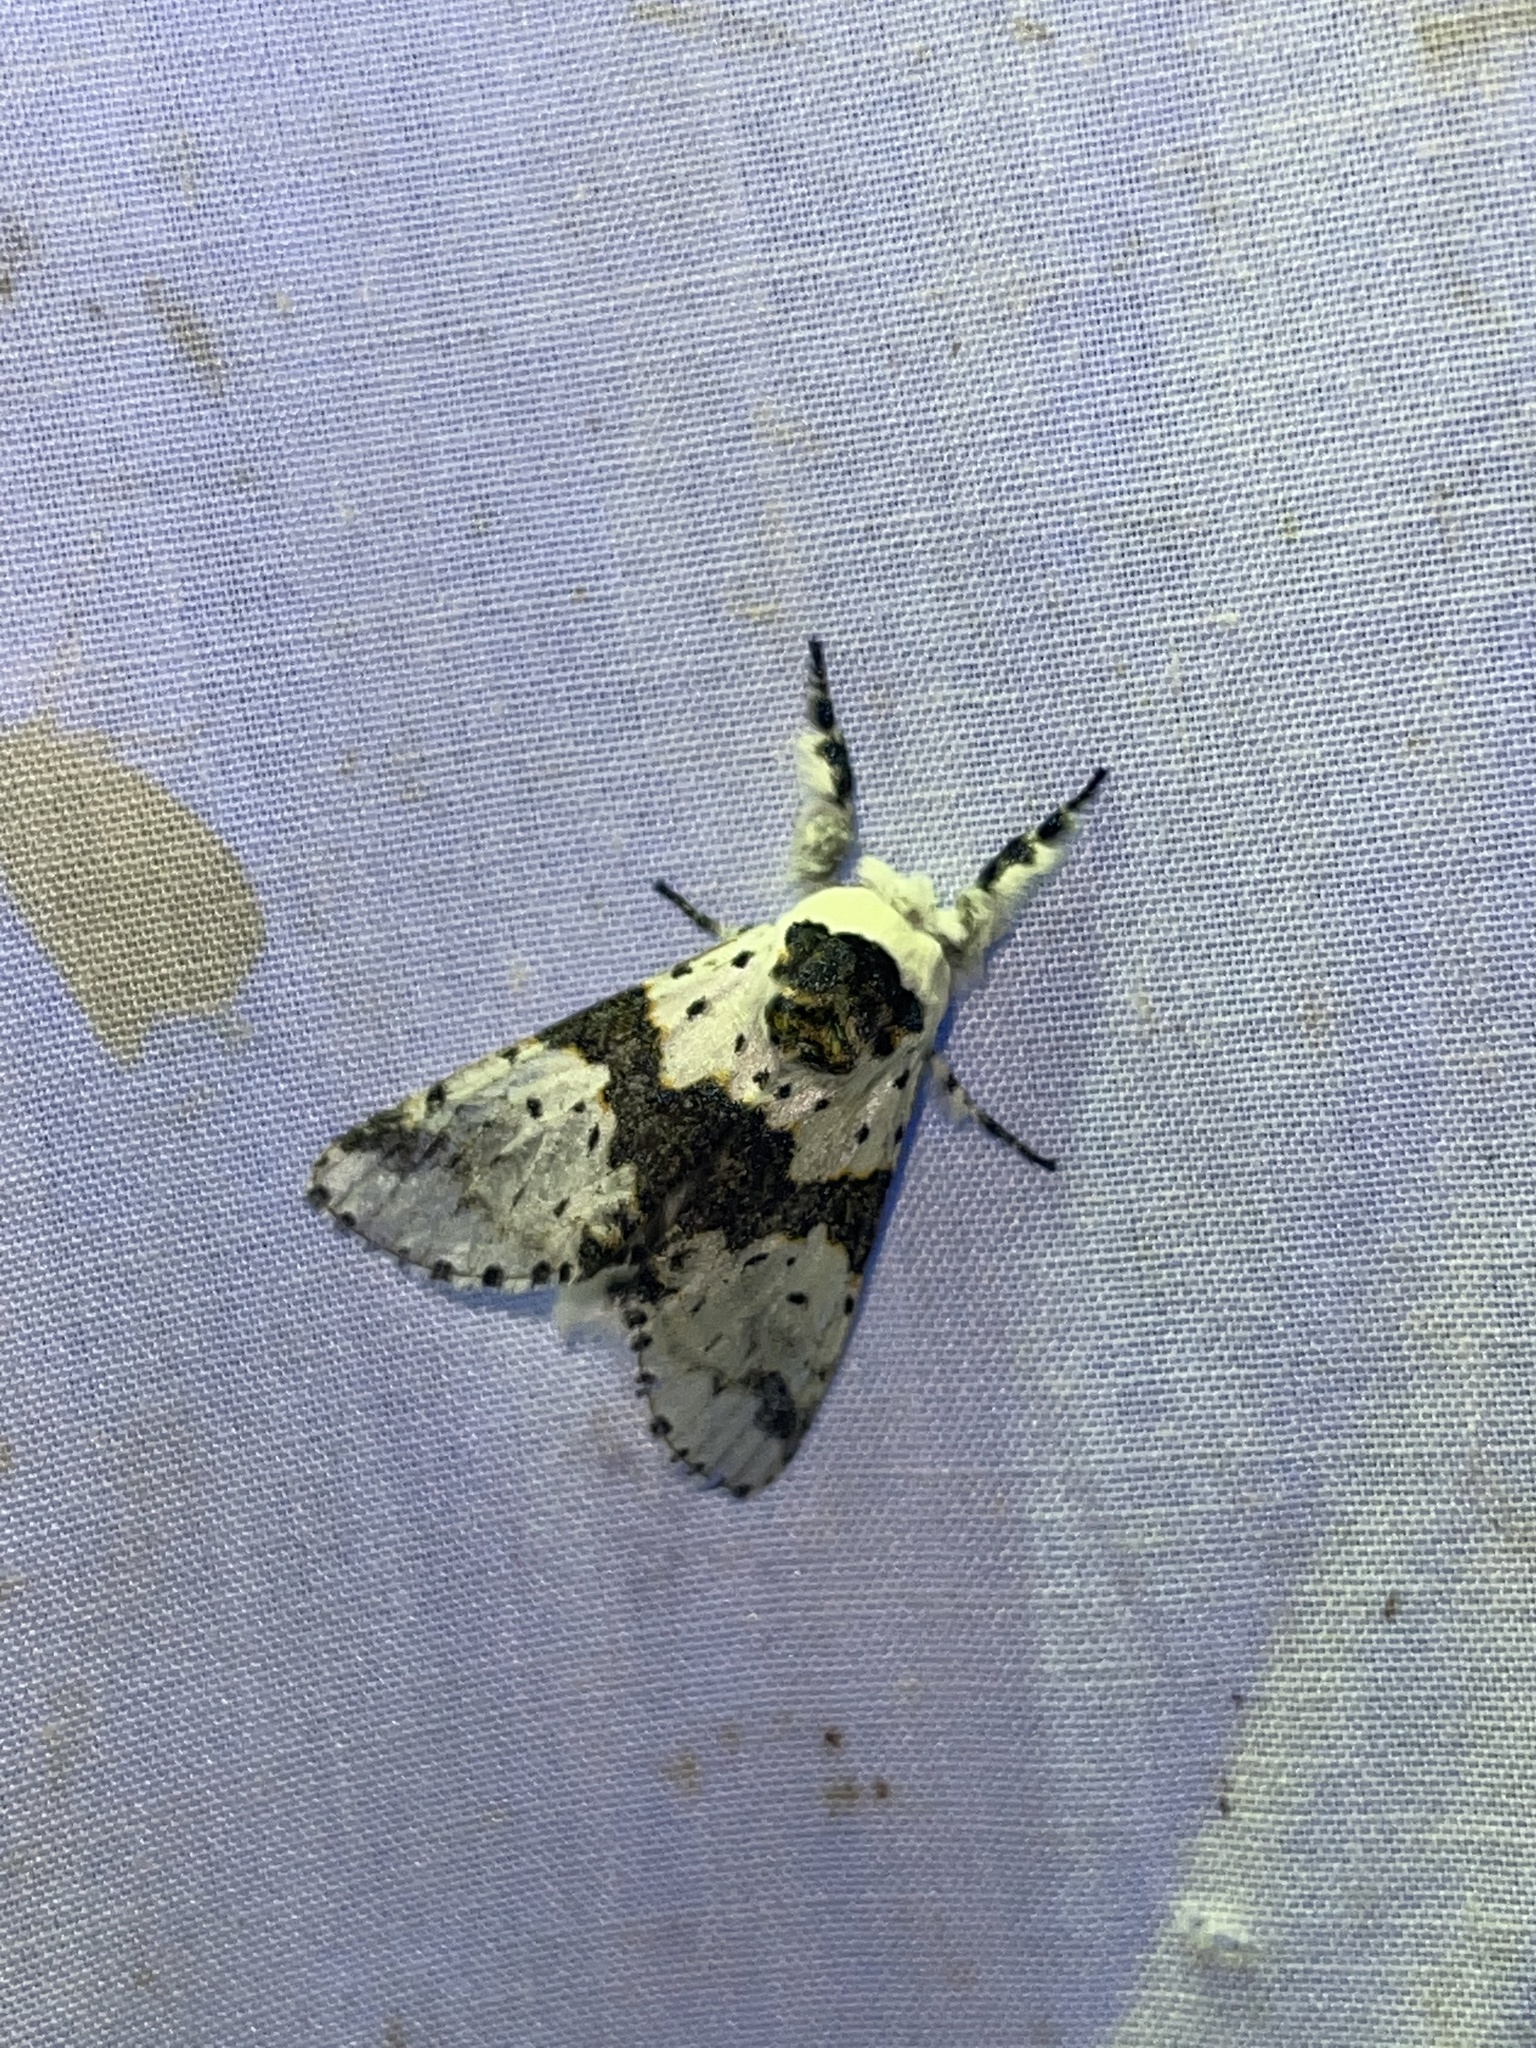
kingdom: Animalia
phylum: Arthropoda
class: Insecta
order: Lepidoptera
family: Notodontidae
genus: Furcula
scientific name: Furcula borealis
